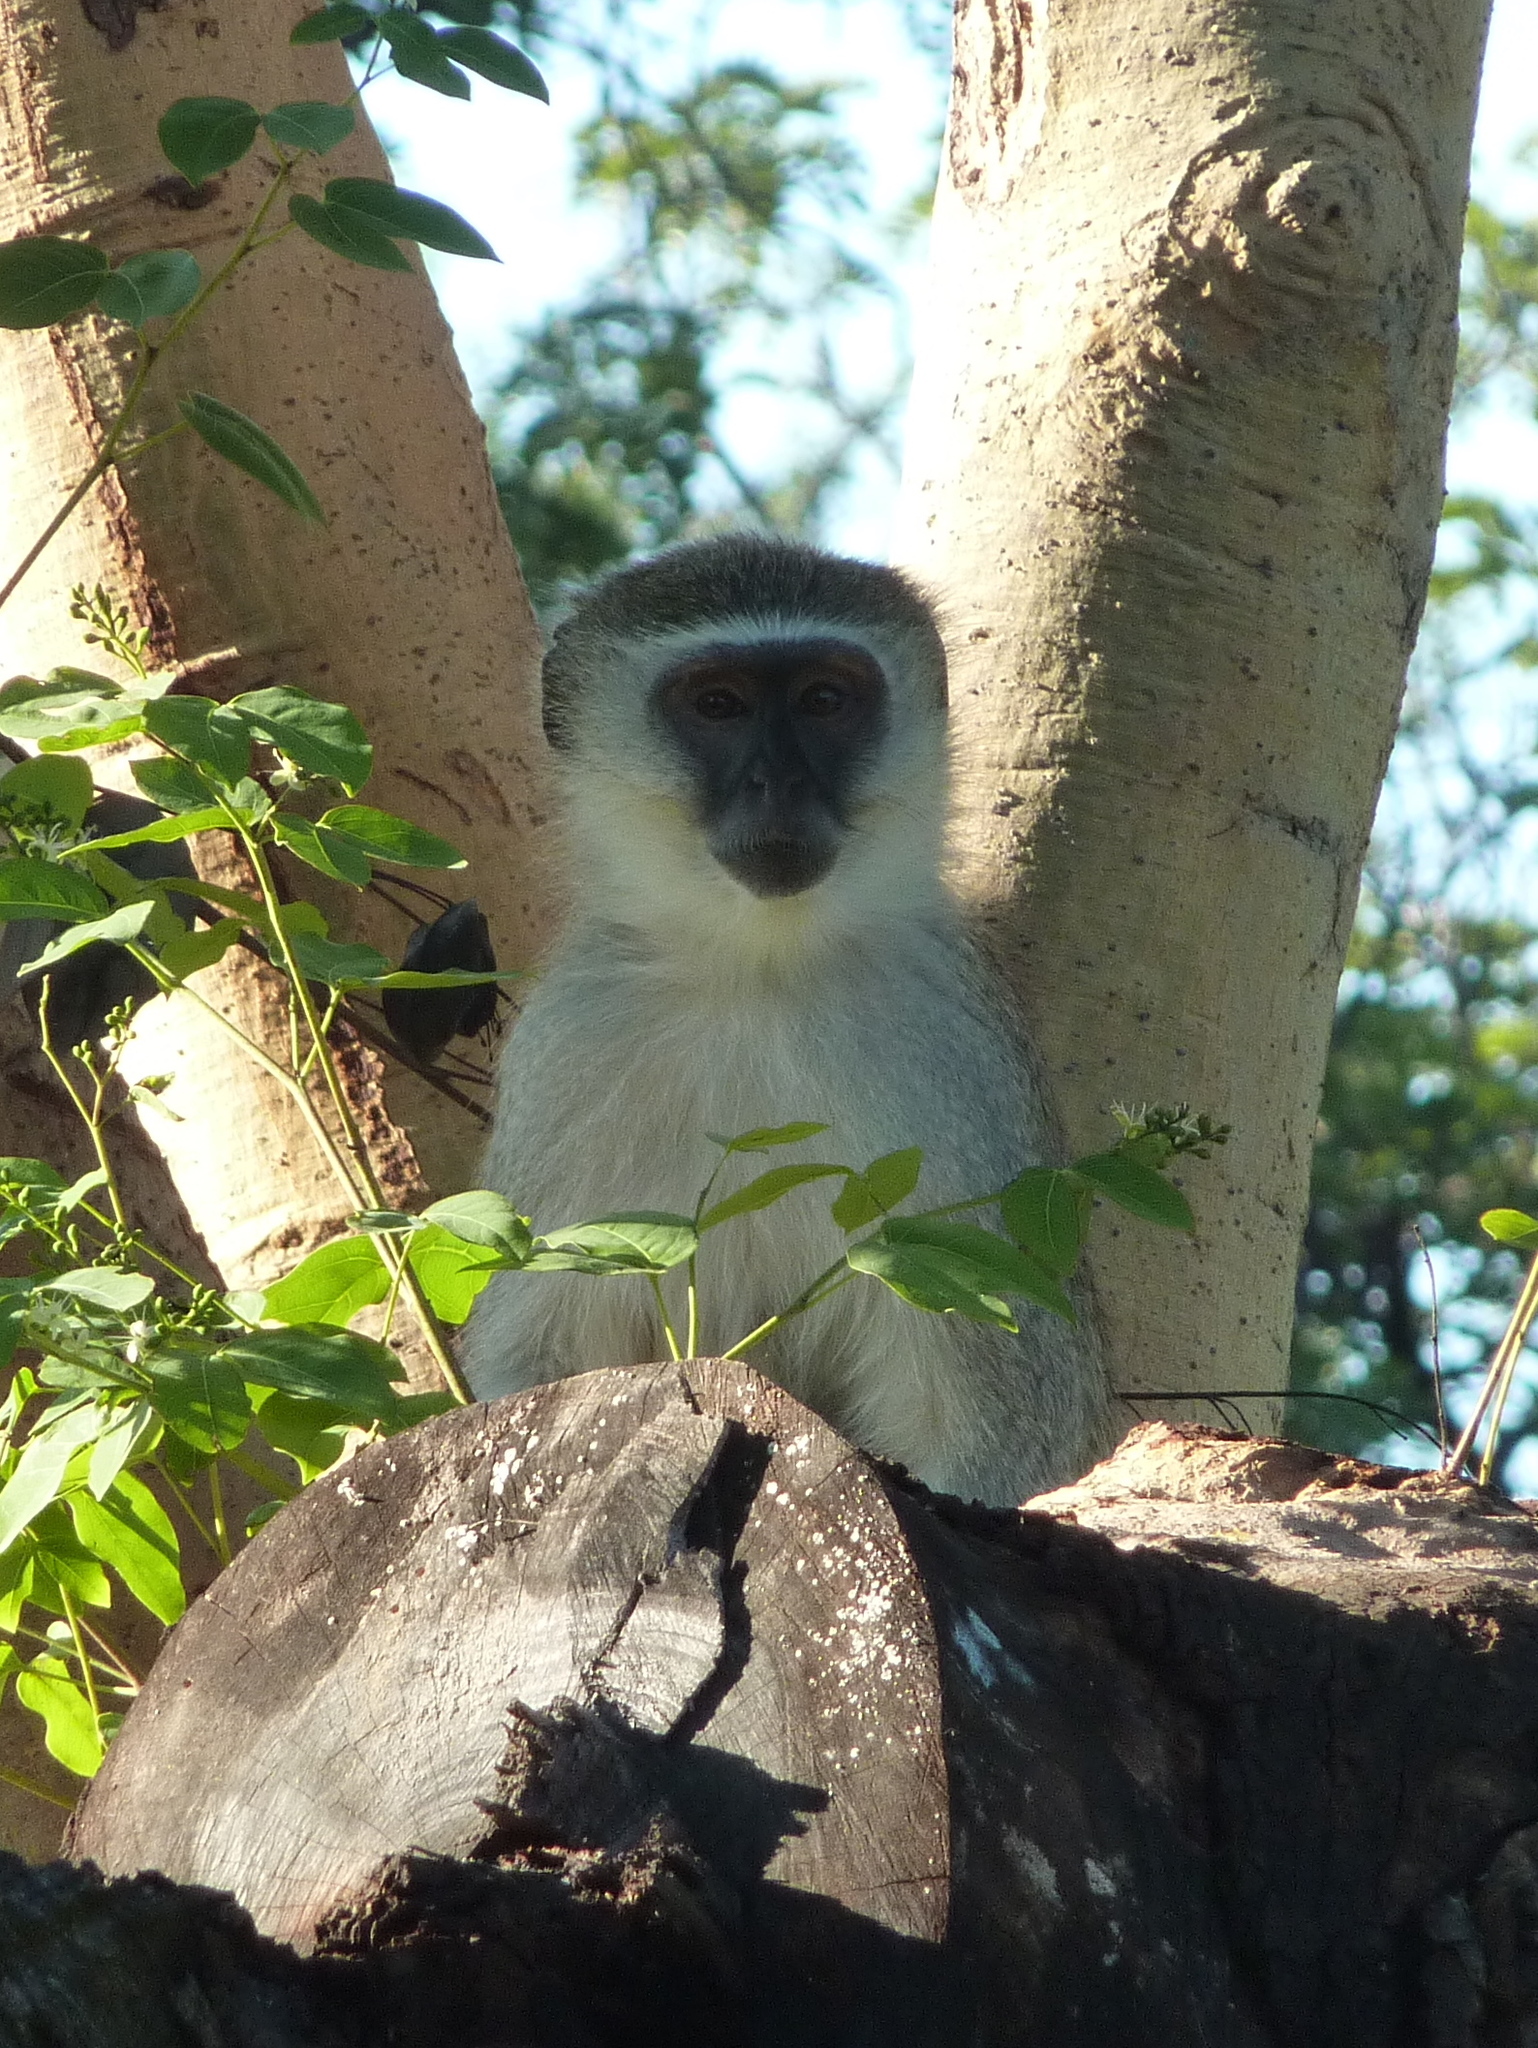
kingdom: Animalia
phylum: Chordata
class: Mammalia
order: Primates
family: Cercopithecidae
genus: Chlorocebus
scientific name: Chlorocebus pygerythrus
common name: Vervet monkey
